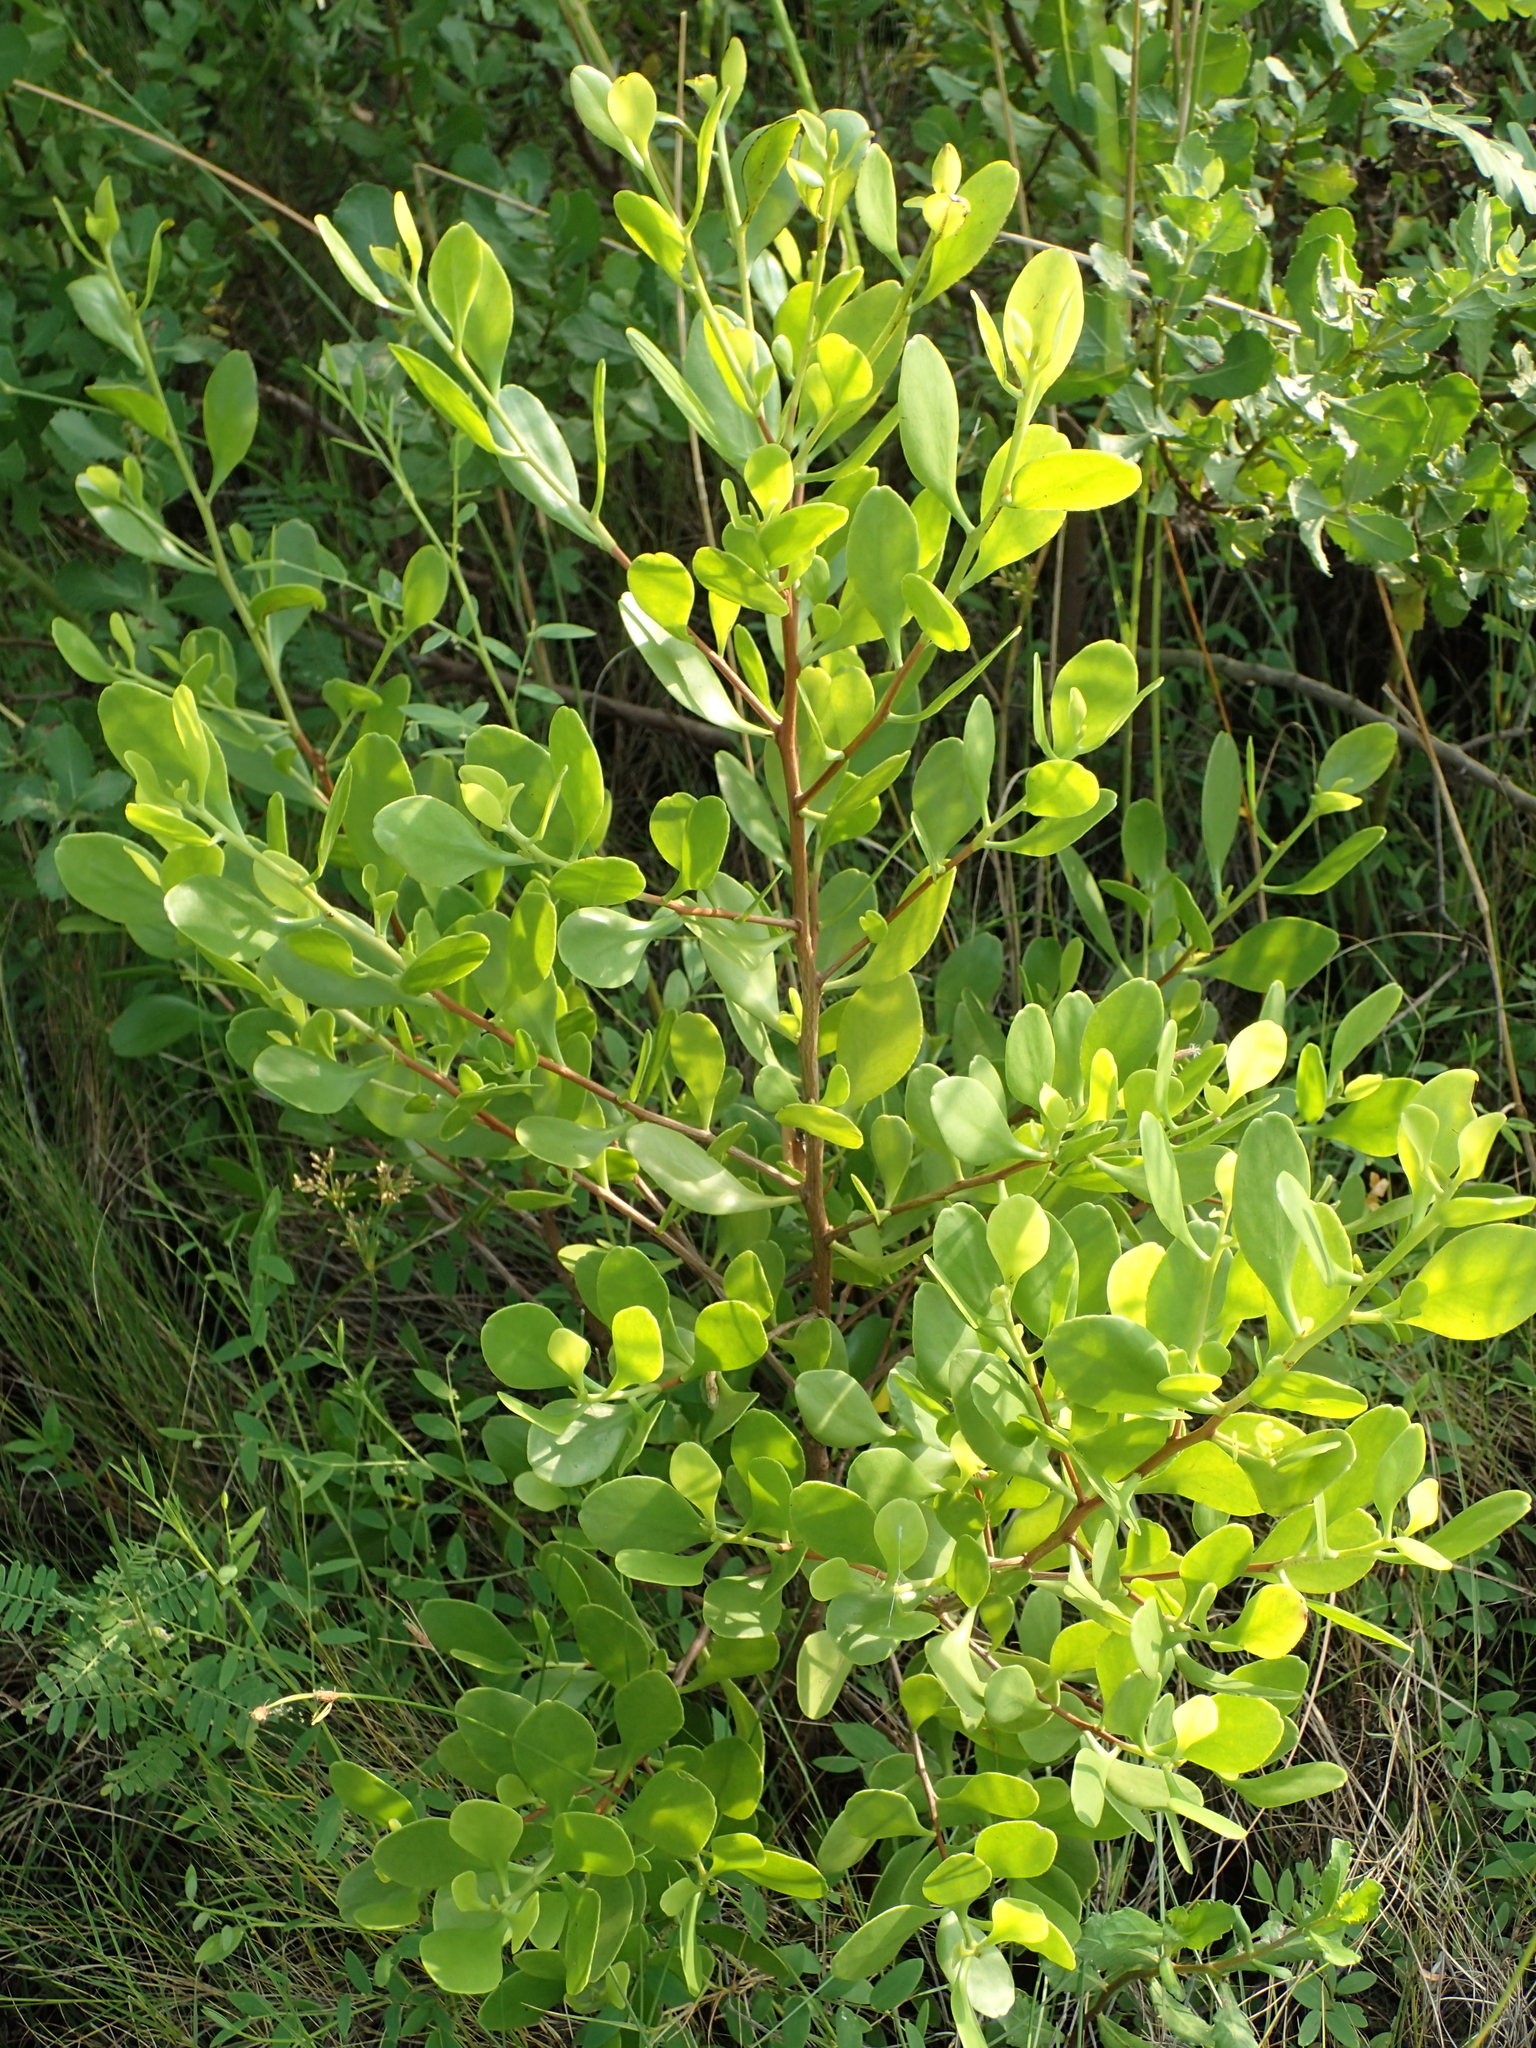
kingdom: Plantae
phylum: Tracheophyta
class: Magnoliopsida
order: Myrtales
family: Combretaceae
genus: Lumnitzera
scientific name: Lumnitzera racemosa
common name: White-flowered black mangrove
